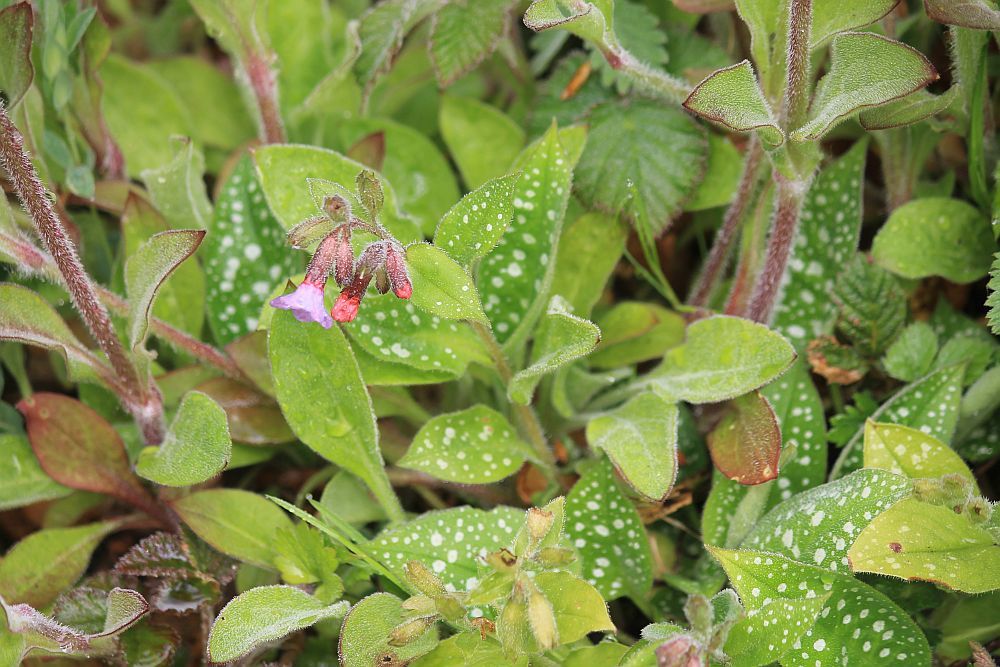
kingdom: Plantae
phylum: Tracheophyta
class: Magnoliopsida
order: Boraginales
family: Boraginaceae
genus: Pulmonaria
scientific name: Pulmonaria officinalis
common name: Lungwort
